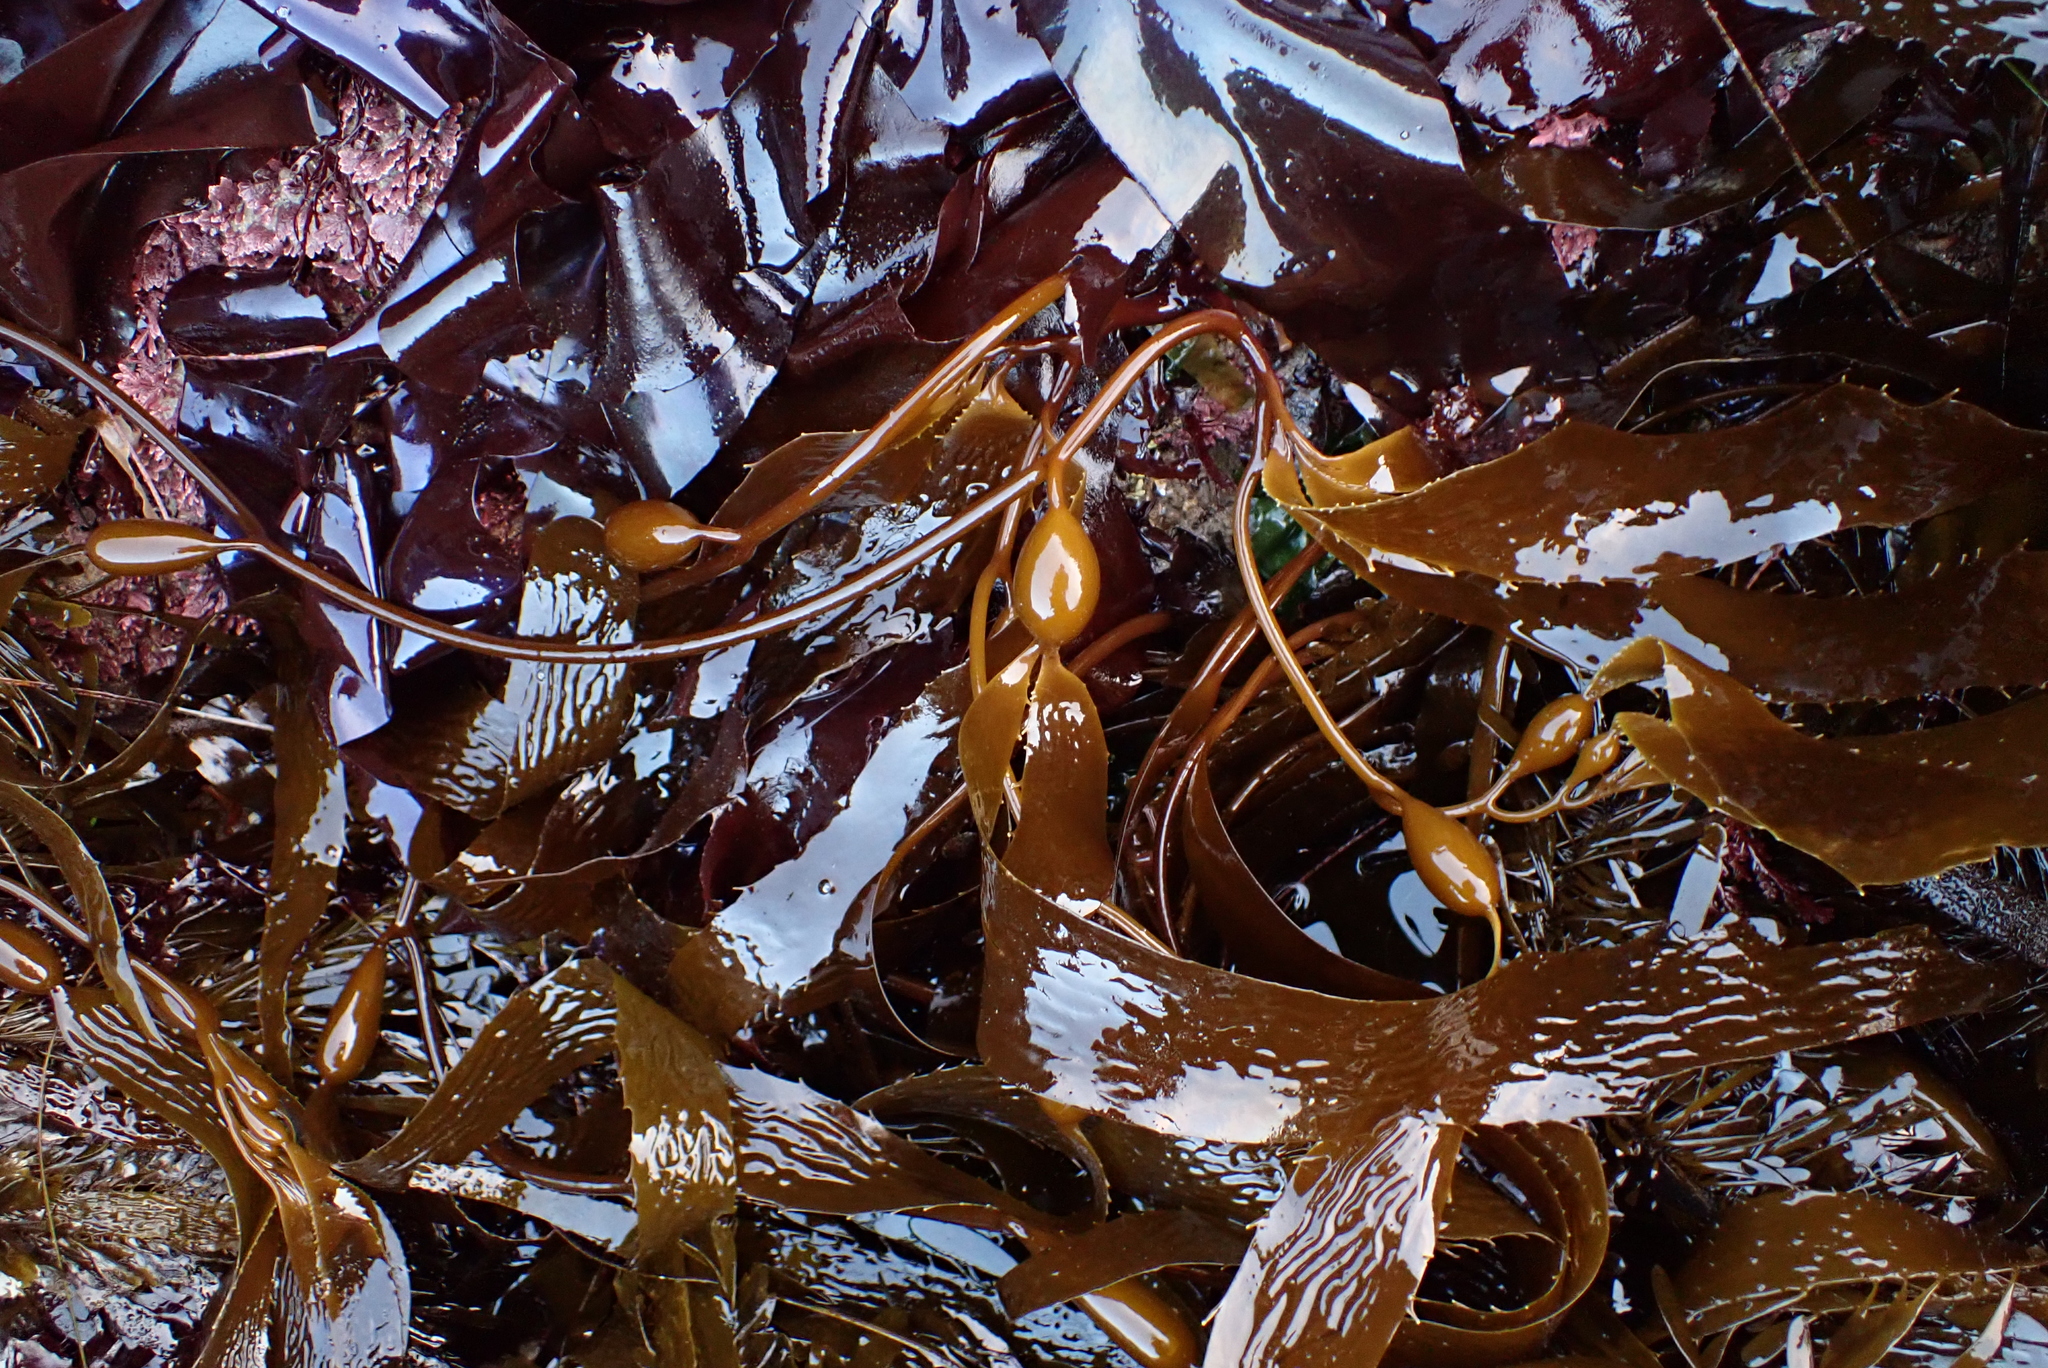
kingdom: Chromista
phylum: Ochrophyta
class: Phaeophyceae
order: Laminariales
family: Laminariaceae
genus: Macrocystis
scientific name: Macrocystis pyrifera
